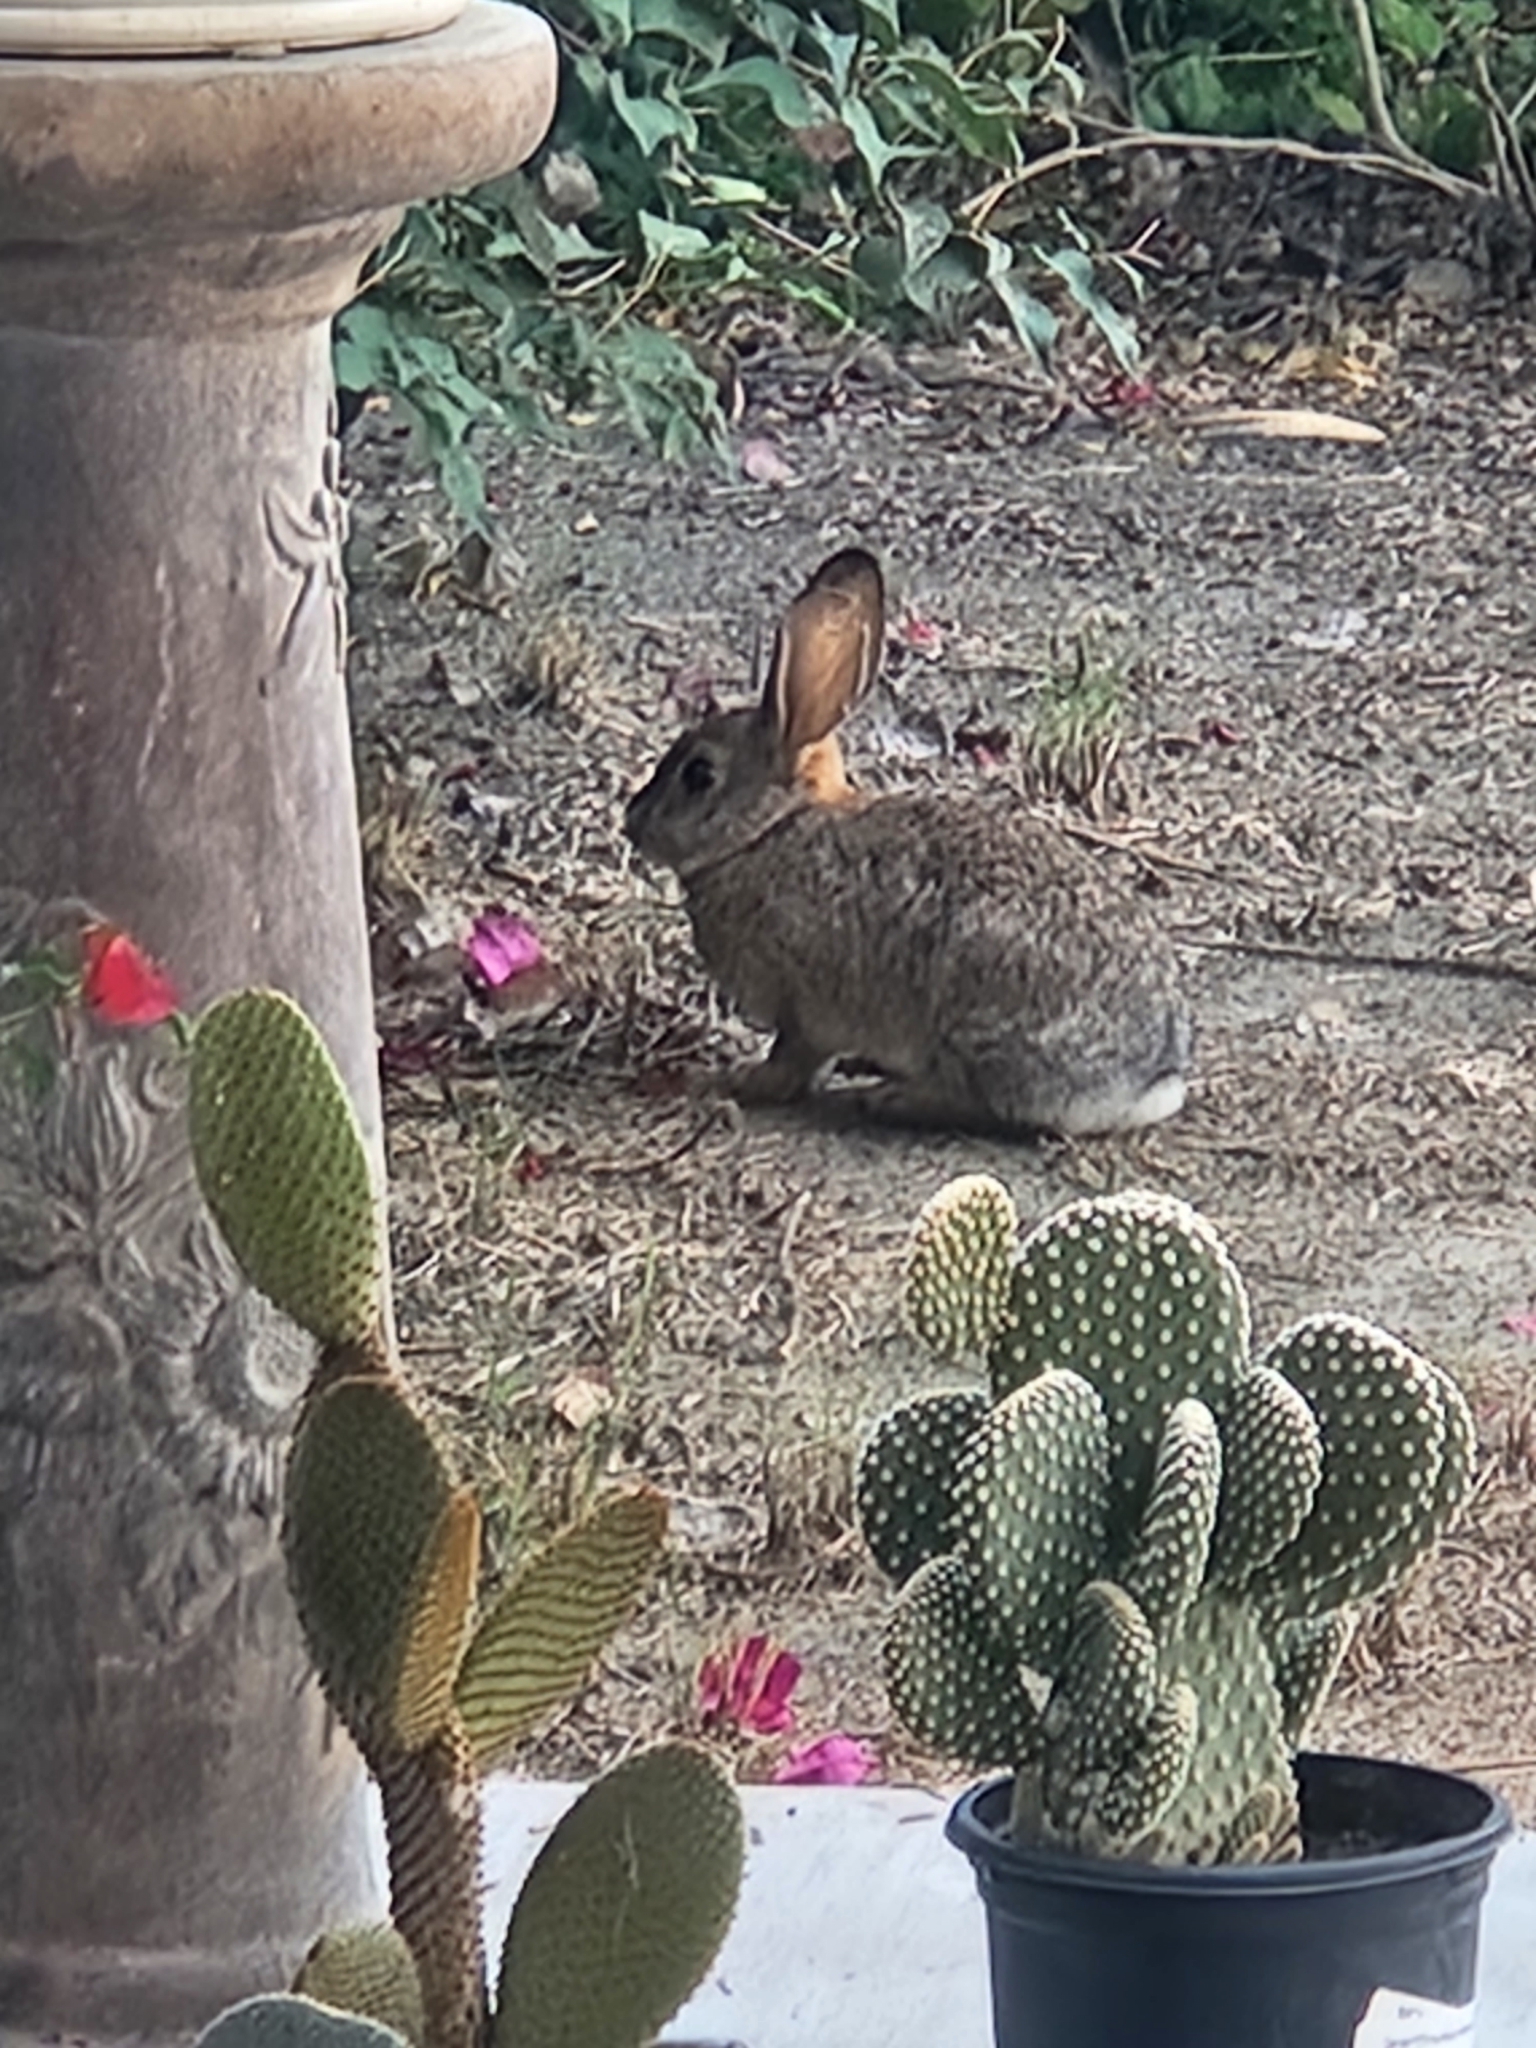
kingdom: Animalia
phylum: Chordata
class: Mammalia
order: Lagomorpha
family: Leporidae
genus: Sylvilagus
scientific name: Sylvilagus audubonii
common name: Desert cottontail
